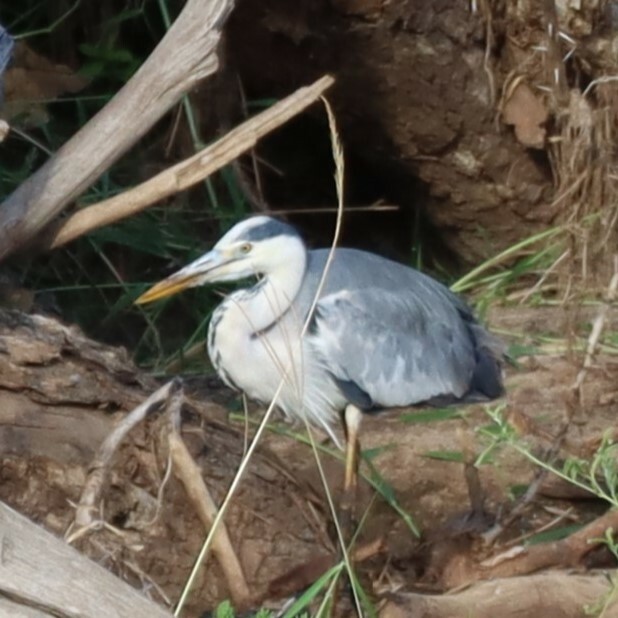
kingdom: Animalia
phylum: Chordata
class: Aves
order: Pelecaniformes
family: Ardeidae
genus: Ardea
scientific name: Ardea cinerea
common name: Grey heron
